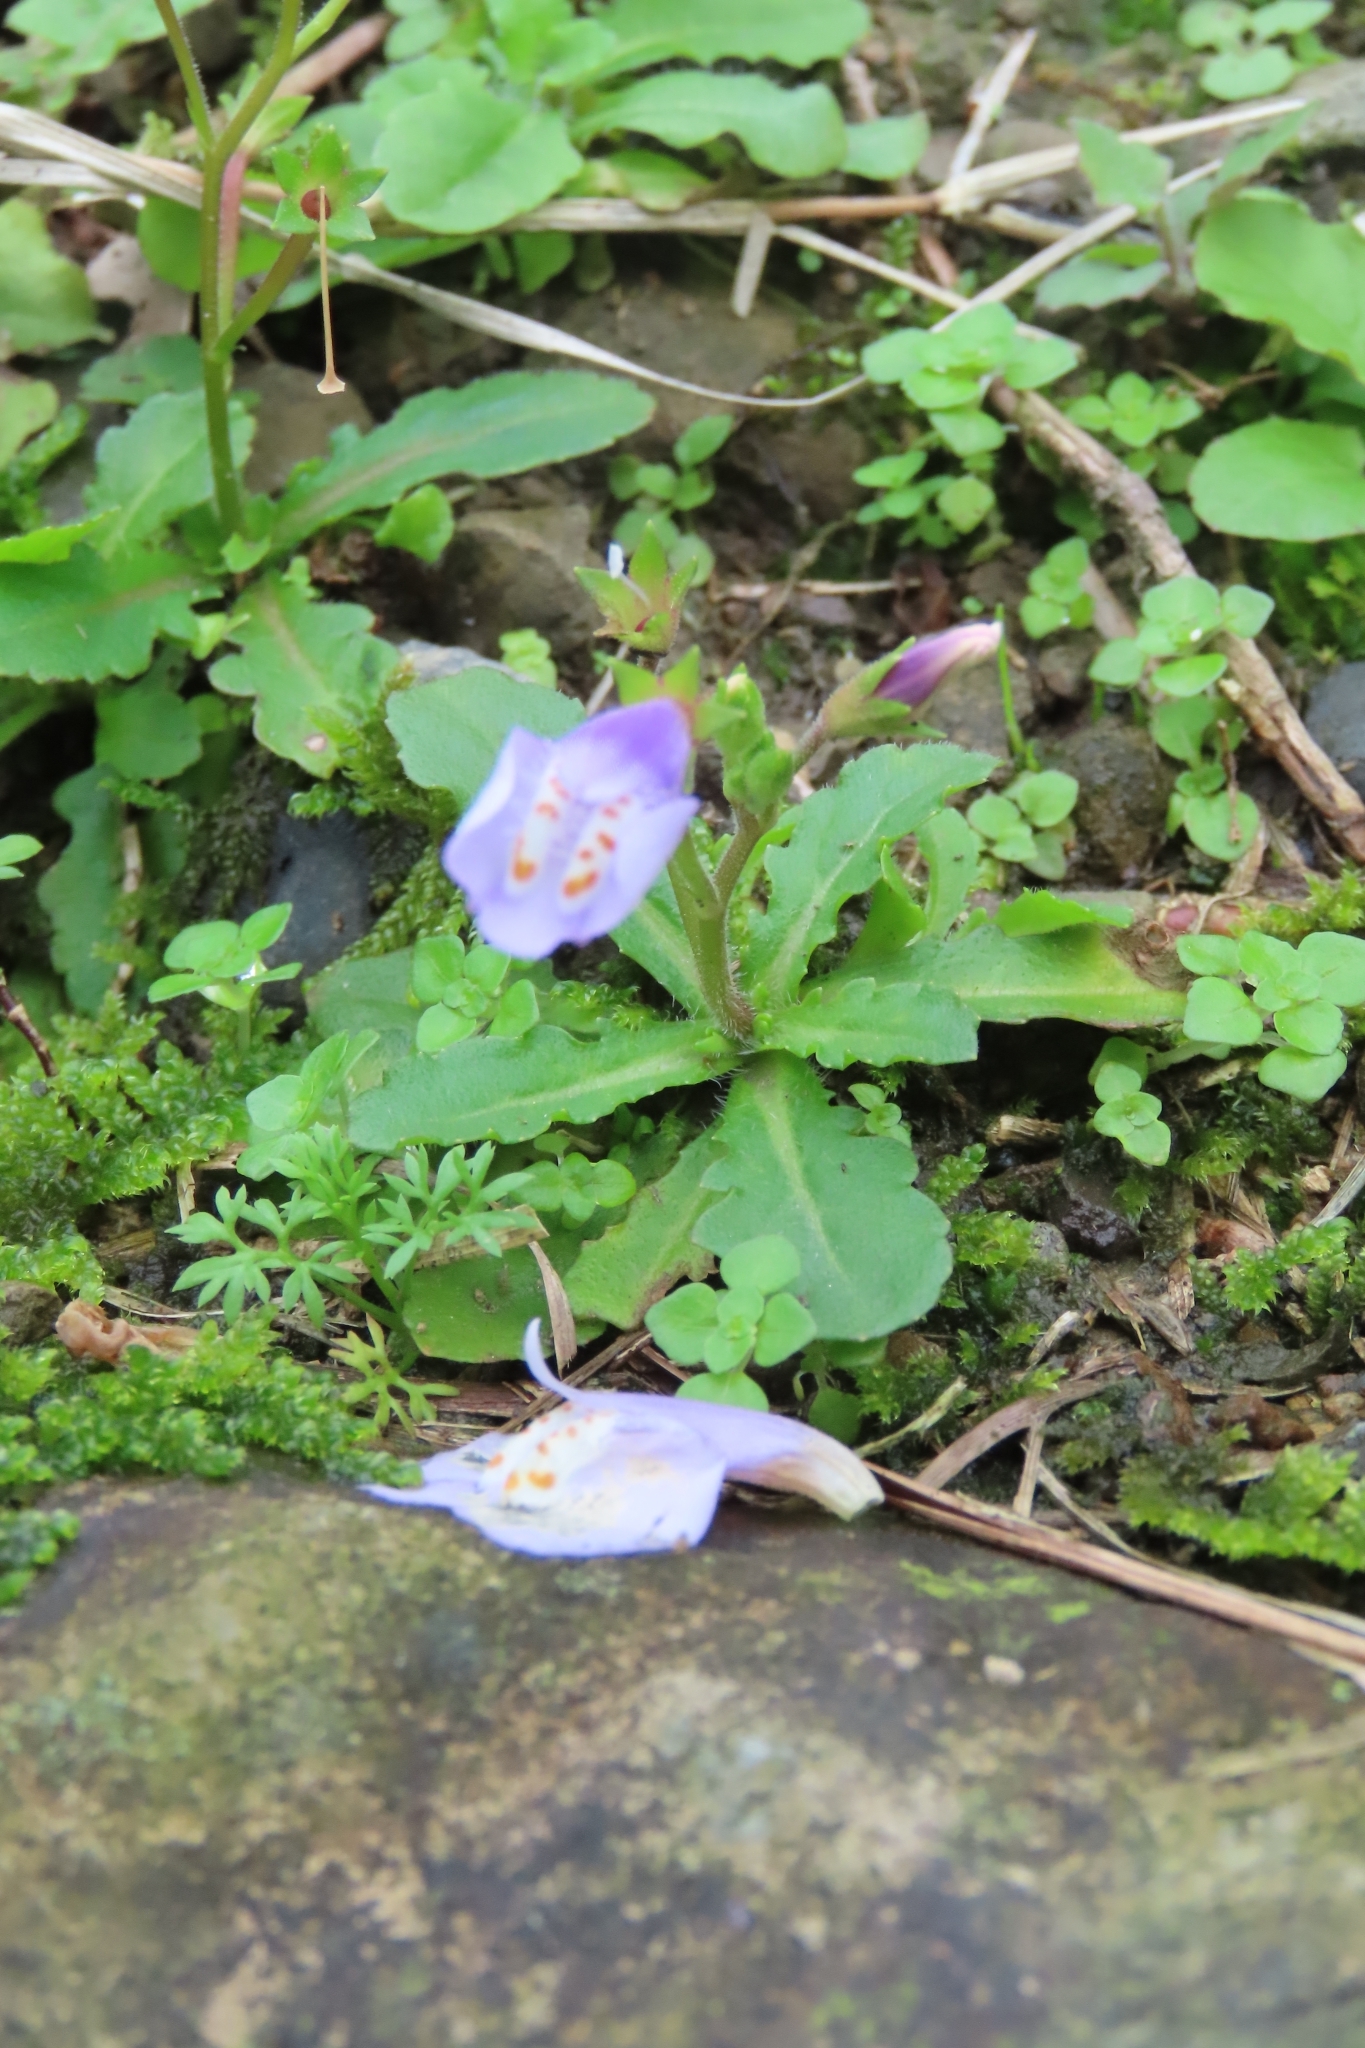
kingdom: Plantae
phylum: Tracheophyta
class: Magnoliopsida
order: Lamiales
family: Mazaceae
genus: Mazus
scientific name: Mazus fauriei
